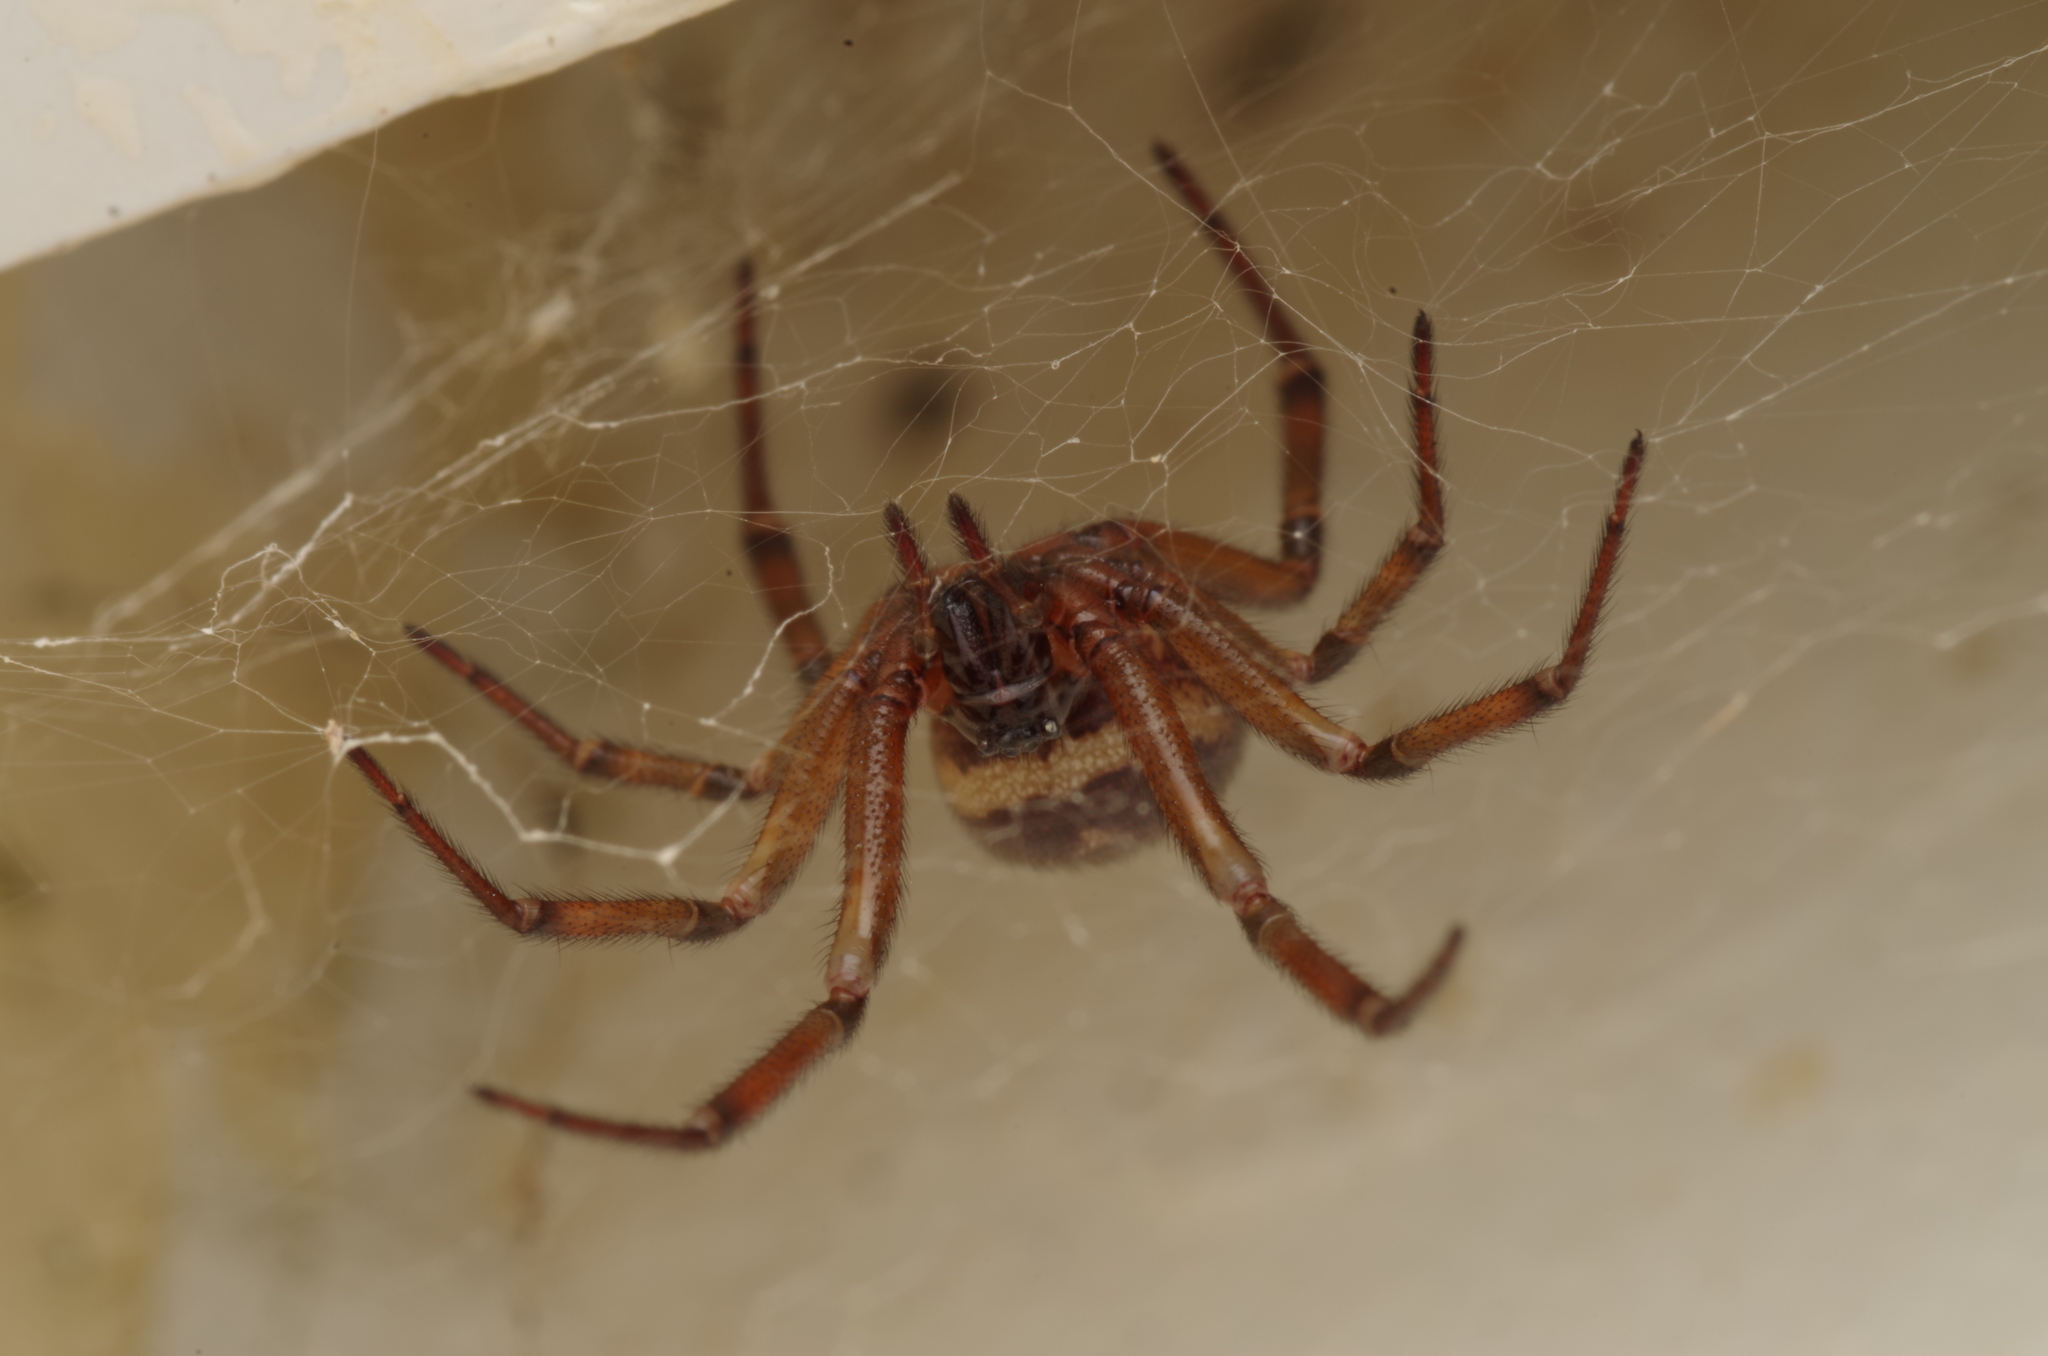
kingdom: Animalia
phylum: Arthropoda
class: Arachnida
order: Araneae
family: Theridiidae
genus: Steatoda
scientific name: Steatoda nobilis
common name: Cobweb weaver
